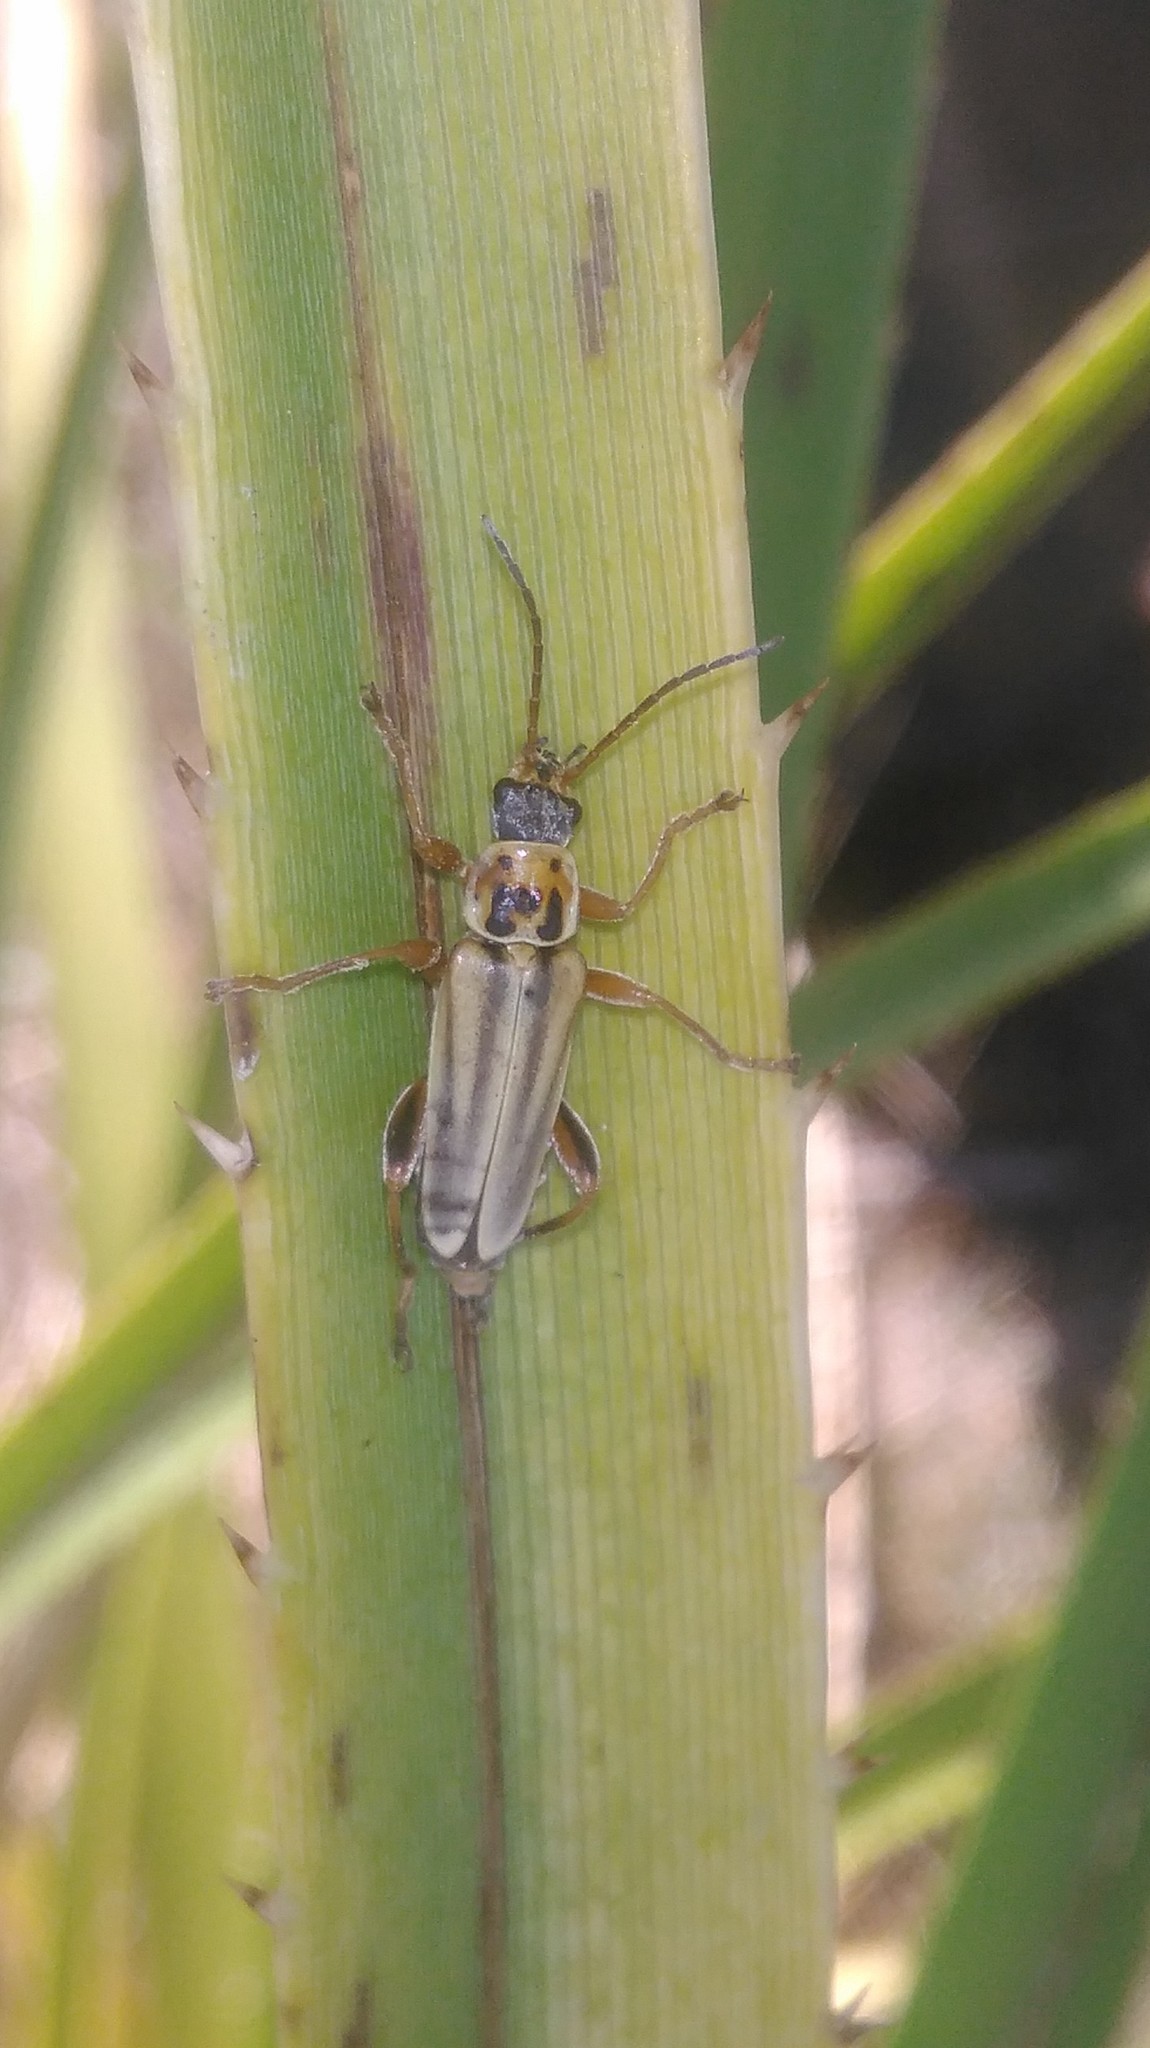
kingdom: Animalia
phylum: Arthropoda
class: Insecta
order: Coleoptera
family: Cantharidae
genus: Chauliognathus
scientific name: Chauliognathus
